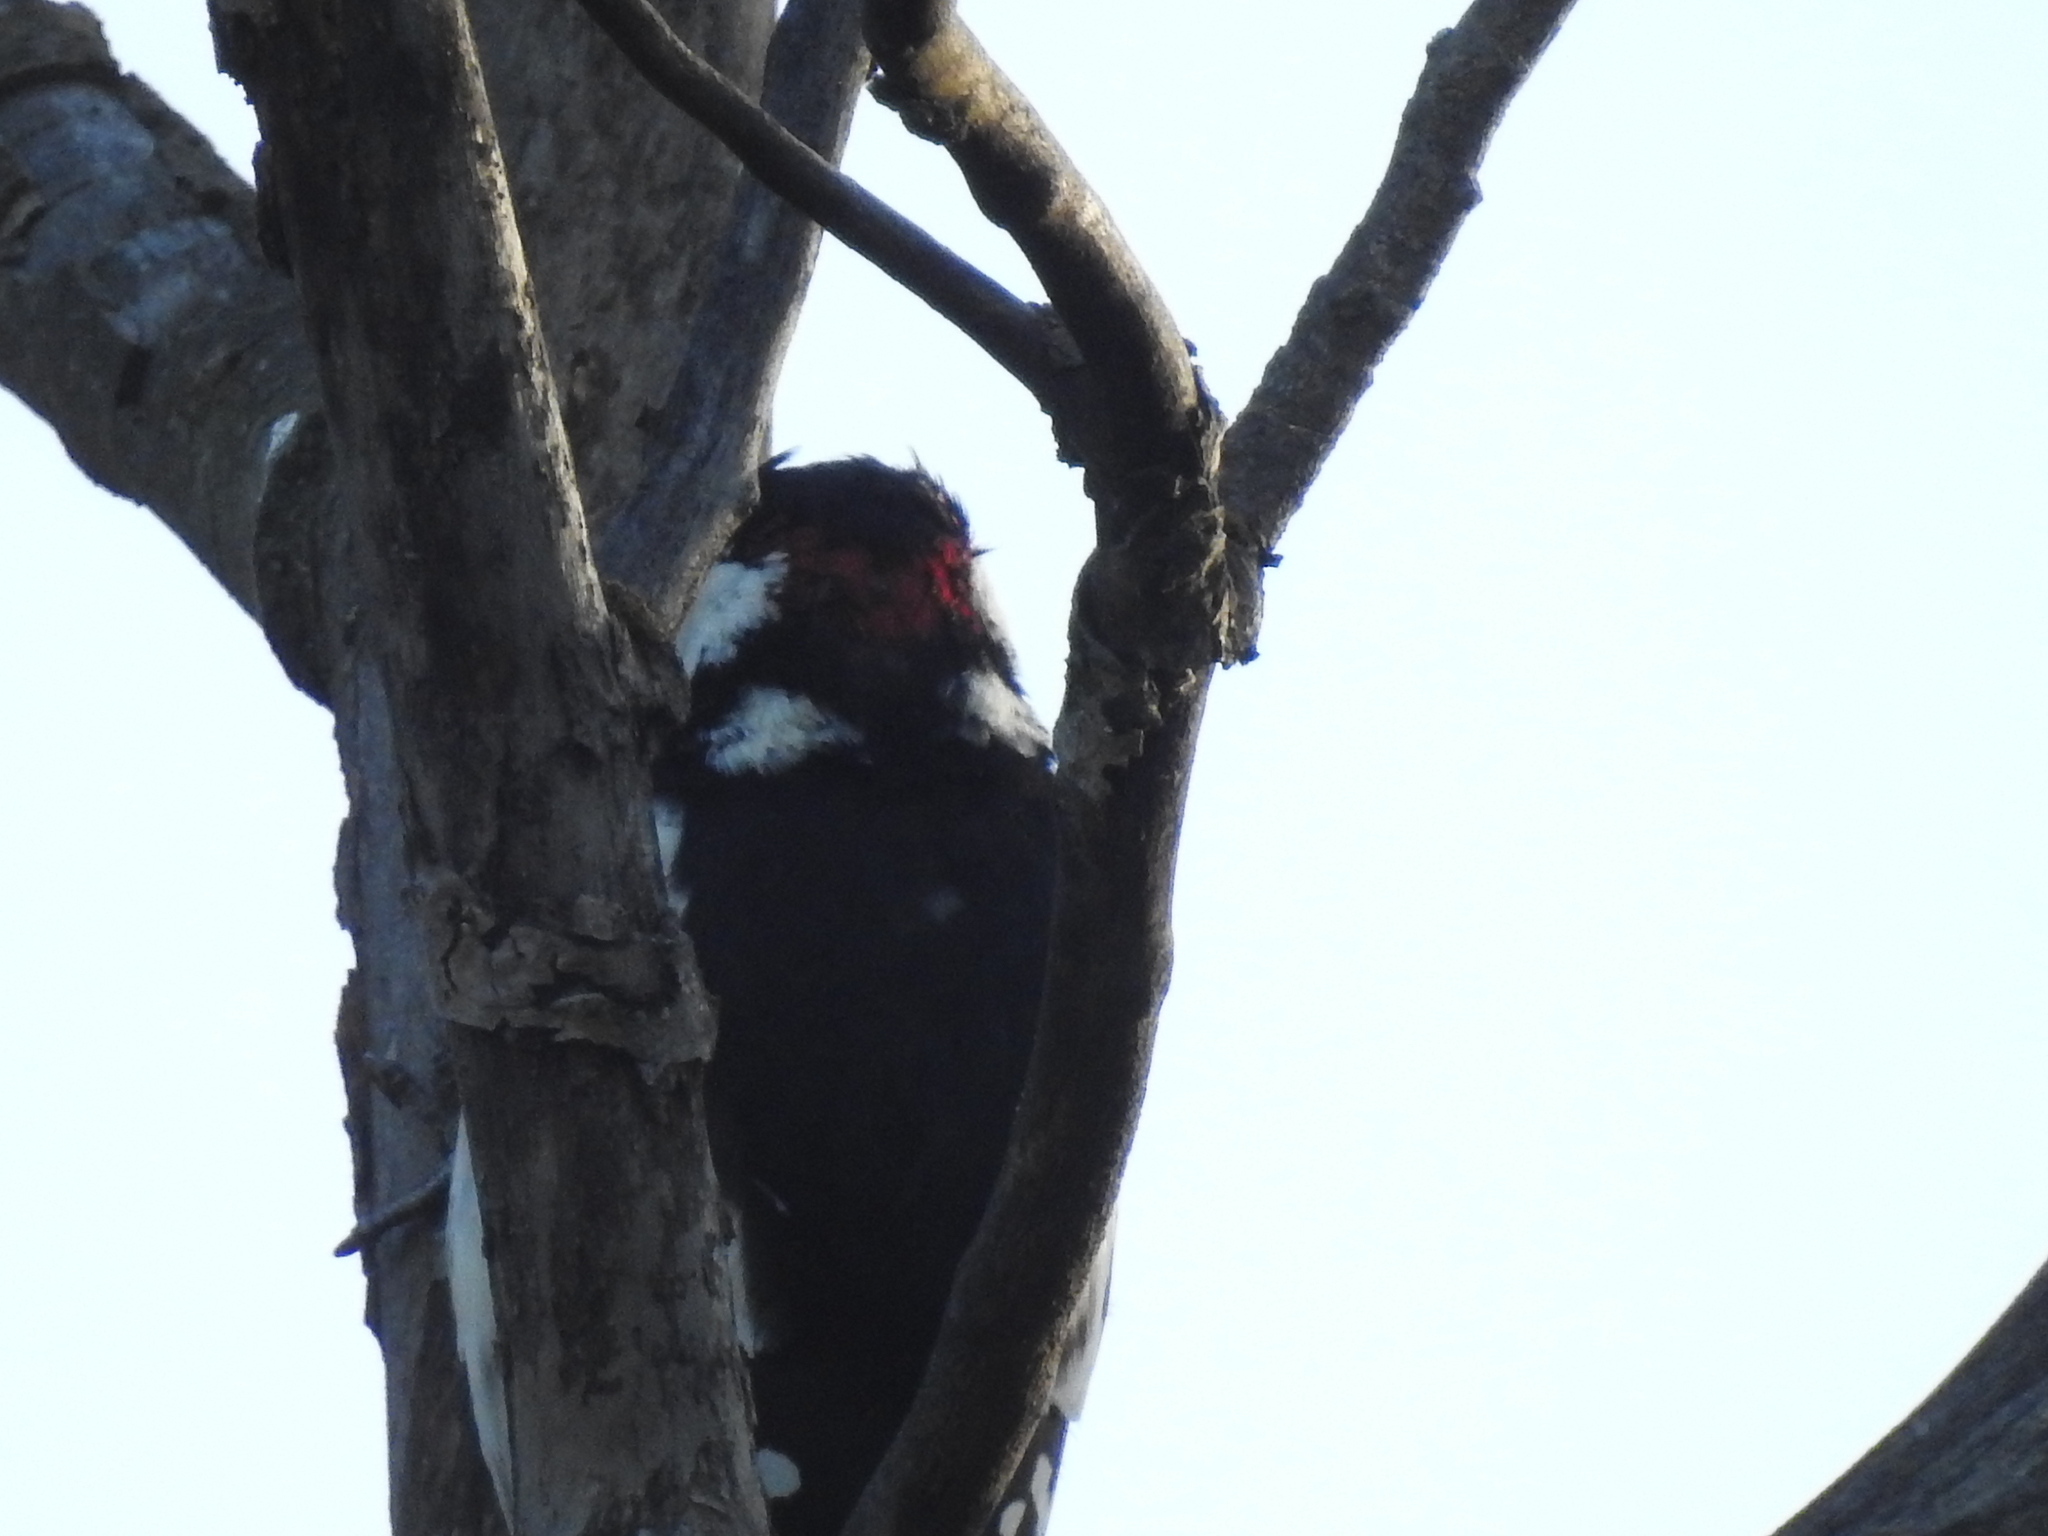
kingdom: Animalia
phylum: Chordata
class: Aves
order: Piciformes
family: Picidae
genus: Dendrocopos
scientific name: Dendrocopos major
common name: Great spotted woodpecker
